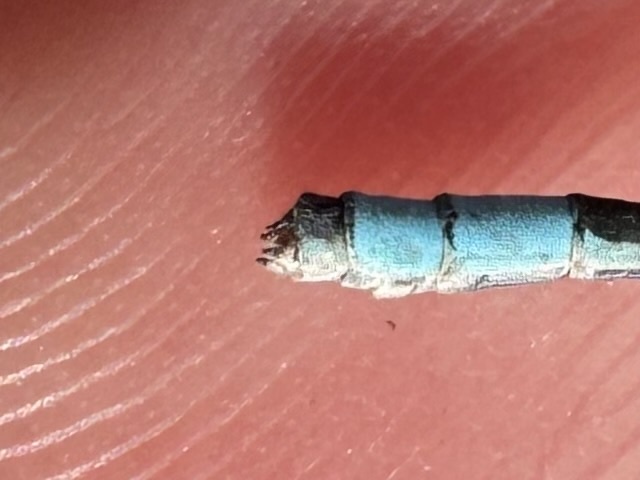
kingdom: Animalia
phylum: Arthropoda
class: Insecta
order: Odonata
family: Coenagrionidae
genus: Enallagma
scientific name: Enallagma hageni
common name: Hagen's bluet
